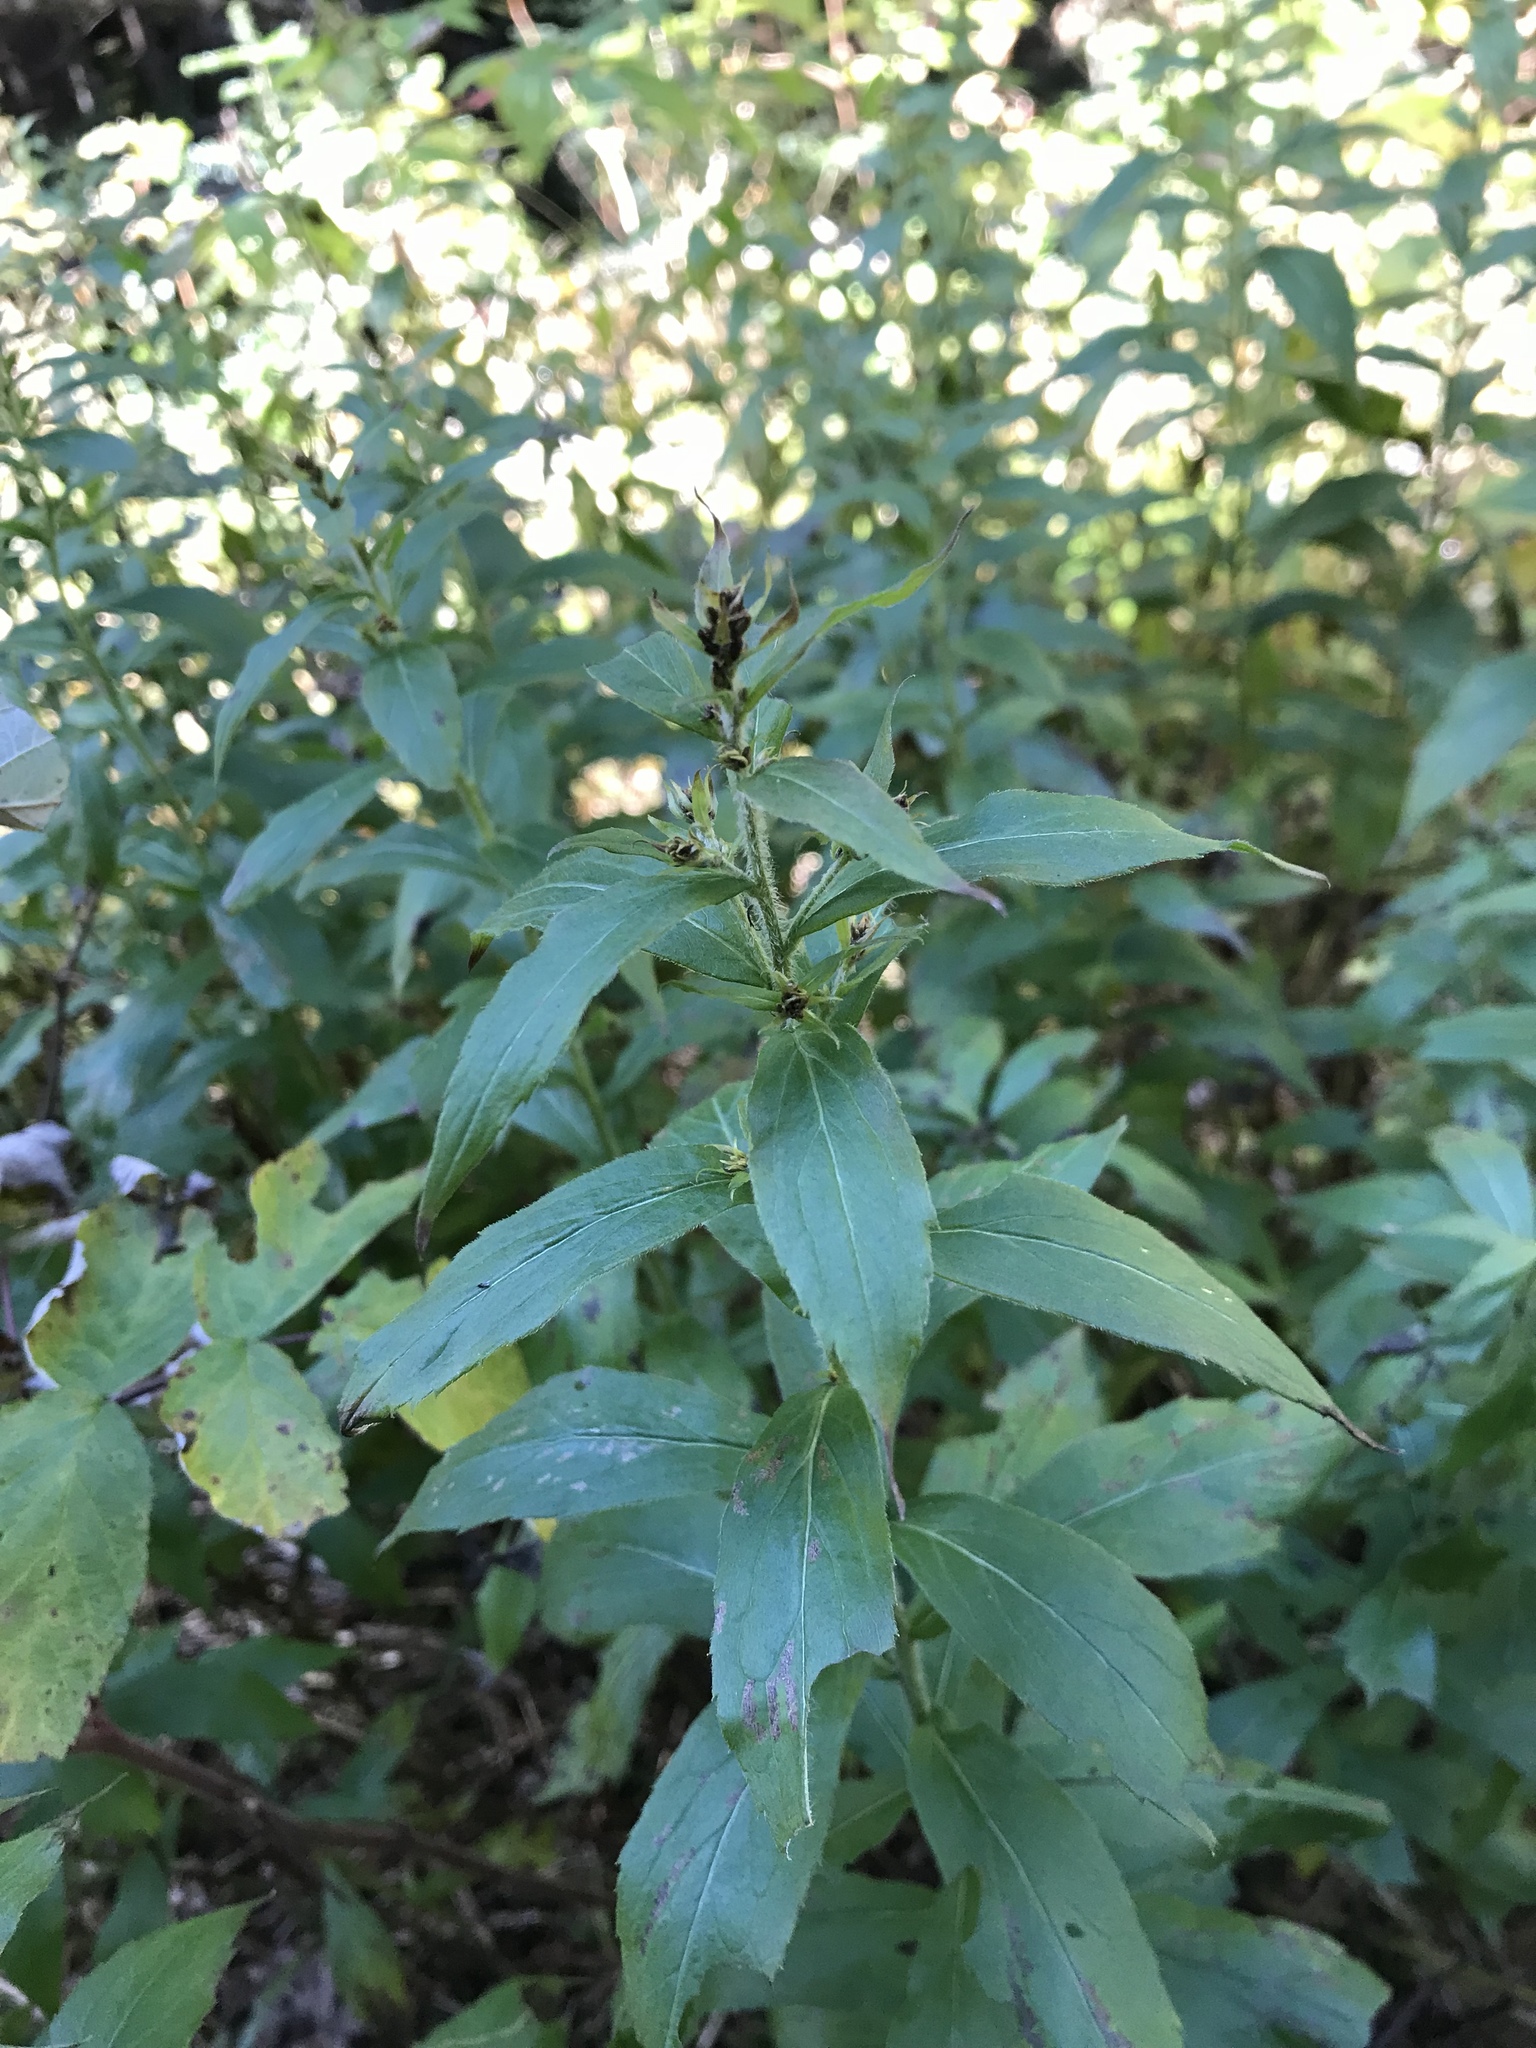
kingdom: Plantae
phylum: Tracheophyta
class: Magnoliopsida
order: Asterales
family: Asteraceae
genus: Solidago
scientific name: Solidago rugosa
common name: Rough-stemmed goldenrod
